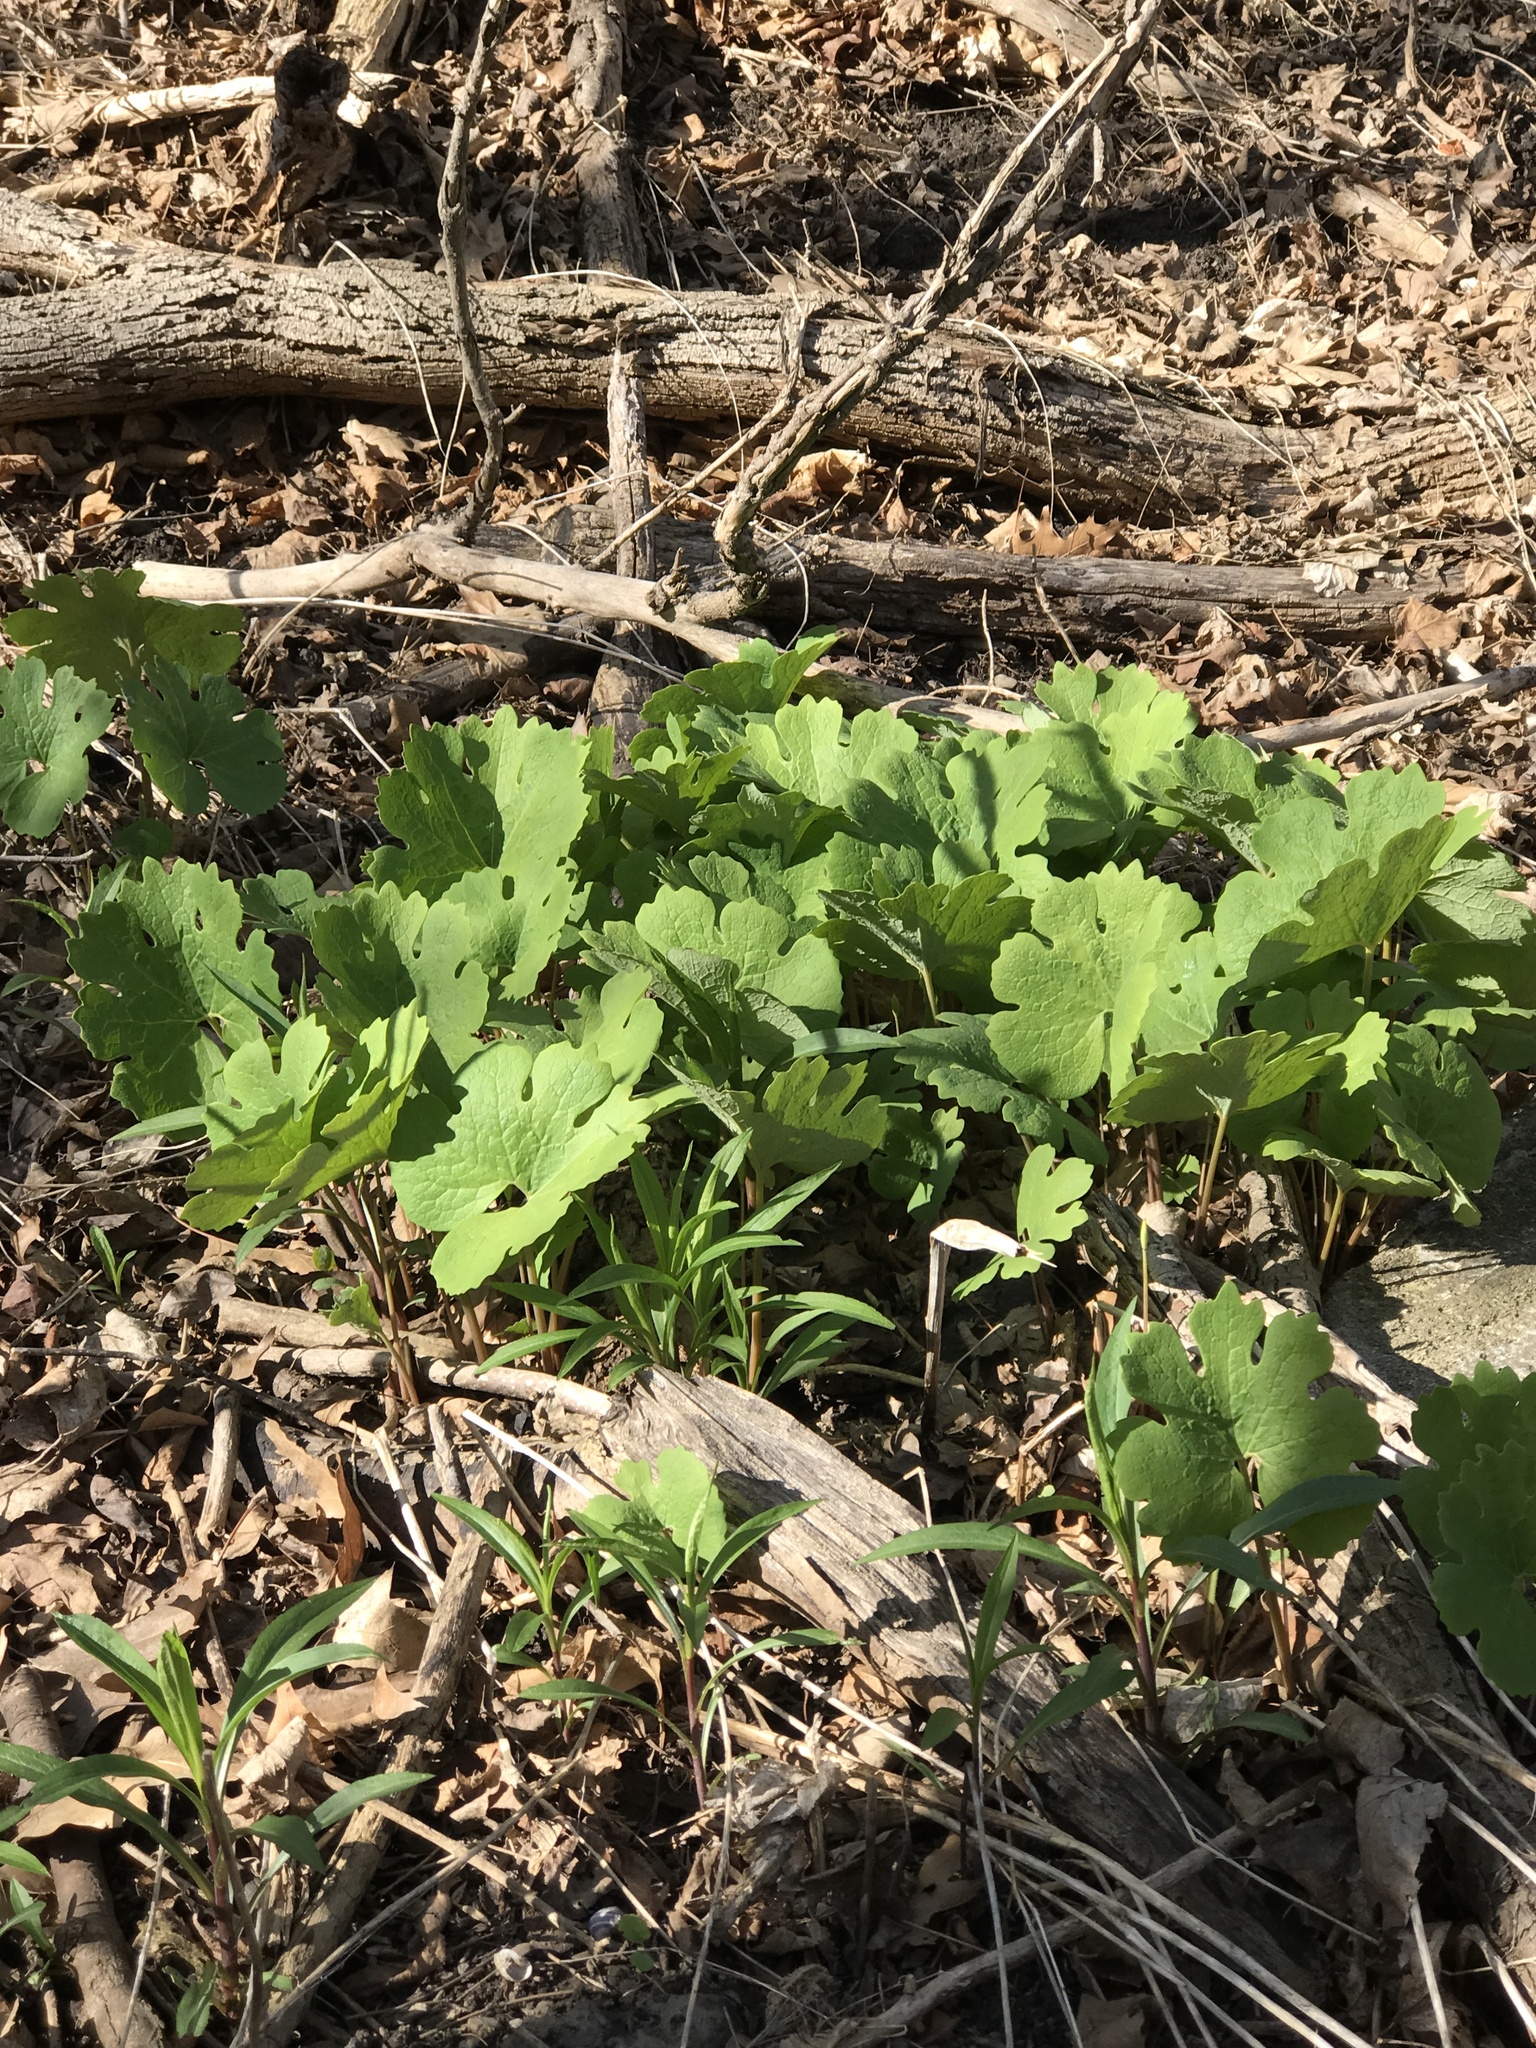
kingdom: Plantae
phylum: Tracheophyta
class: Magnoliopsida
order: Ranunculales
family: Papaveraceae
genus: Sanguinaria
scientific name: Sanguinaria canadensis
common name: Bloodroot
